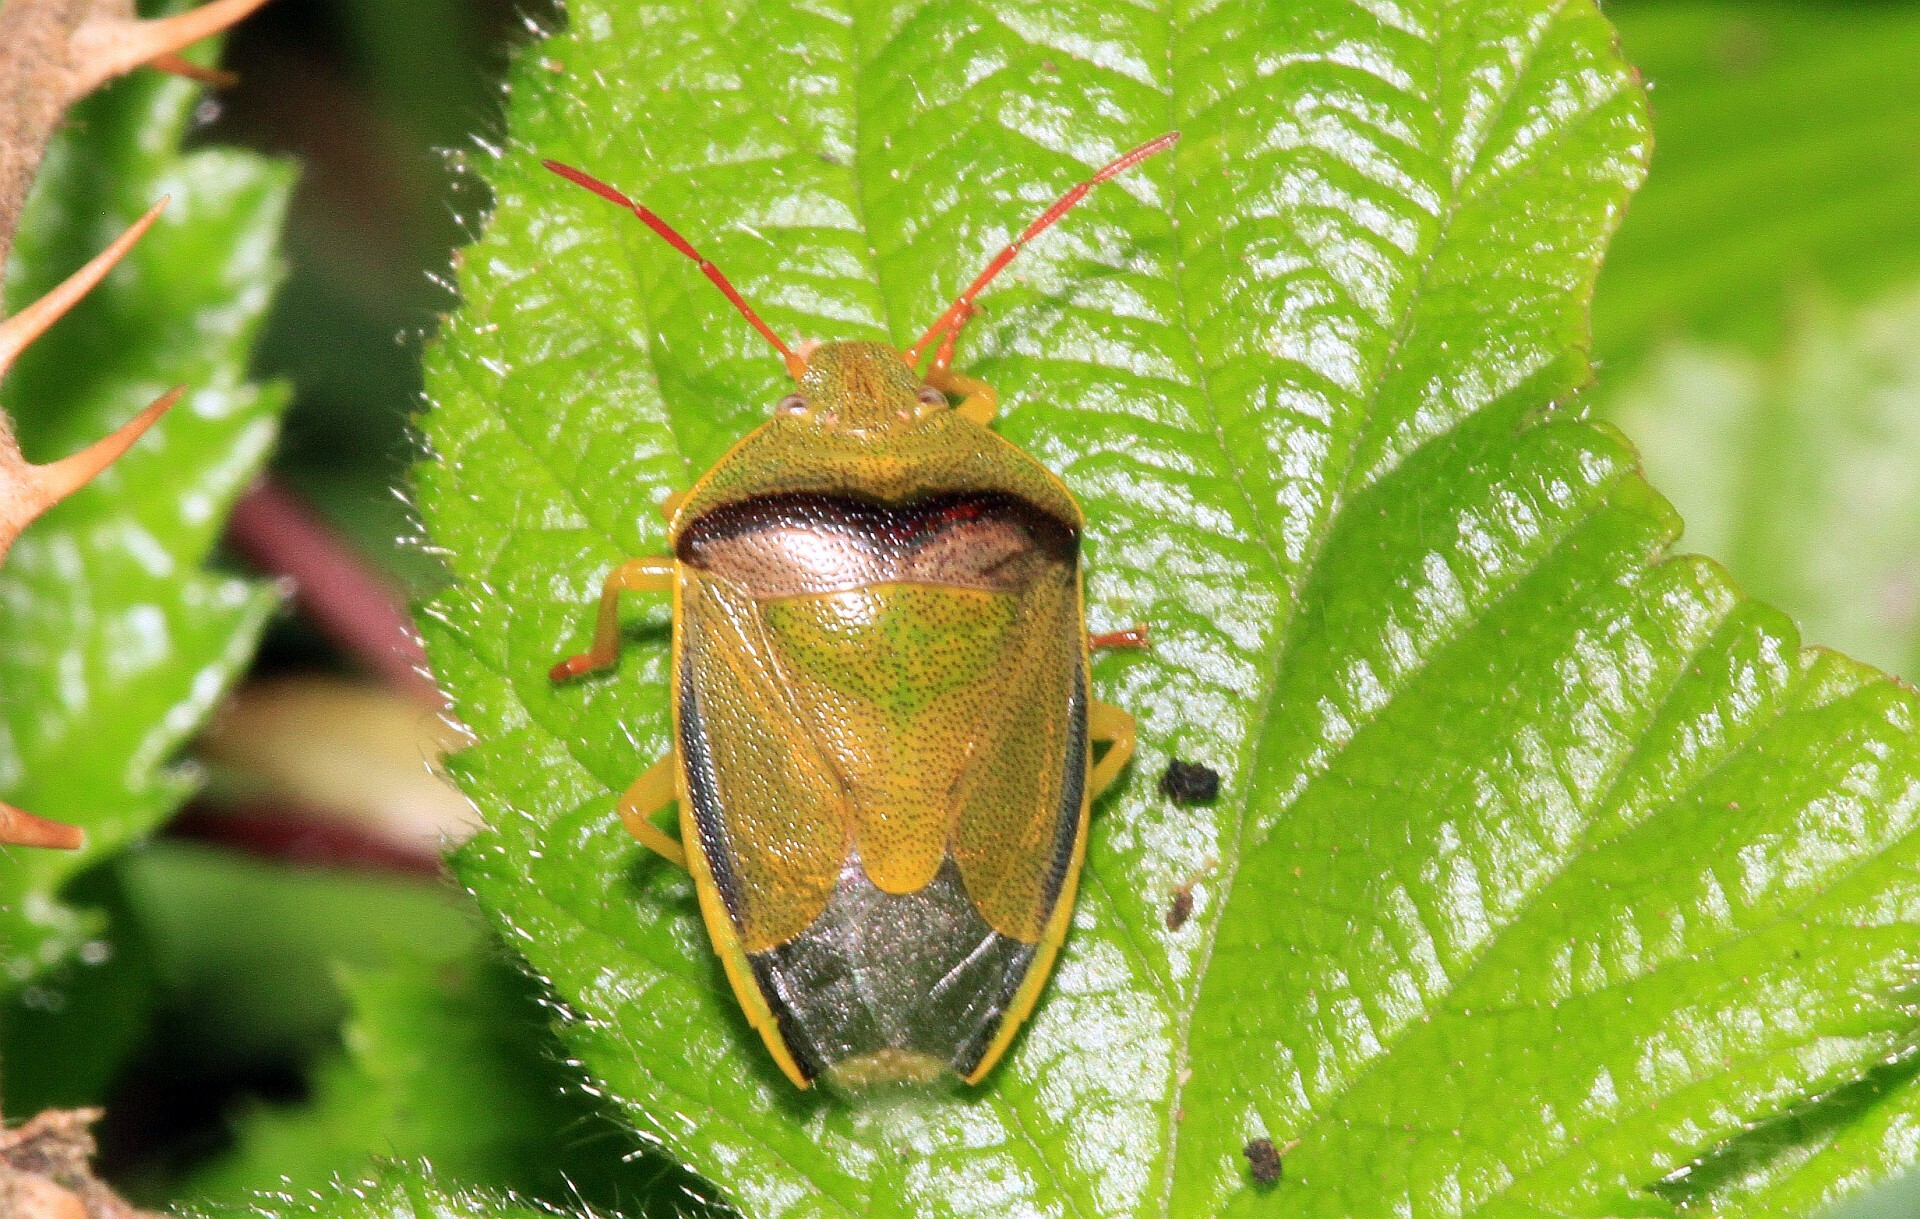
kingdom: Animalia
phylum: Arthropoda
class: Insecta
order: Hemiptera
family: Pentatomidae
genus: Piezodorus
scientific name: Piezodorus lituratus
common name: Stink bug
